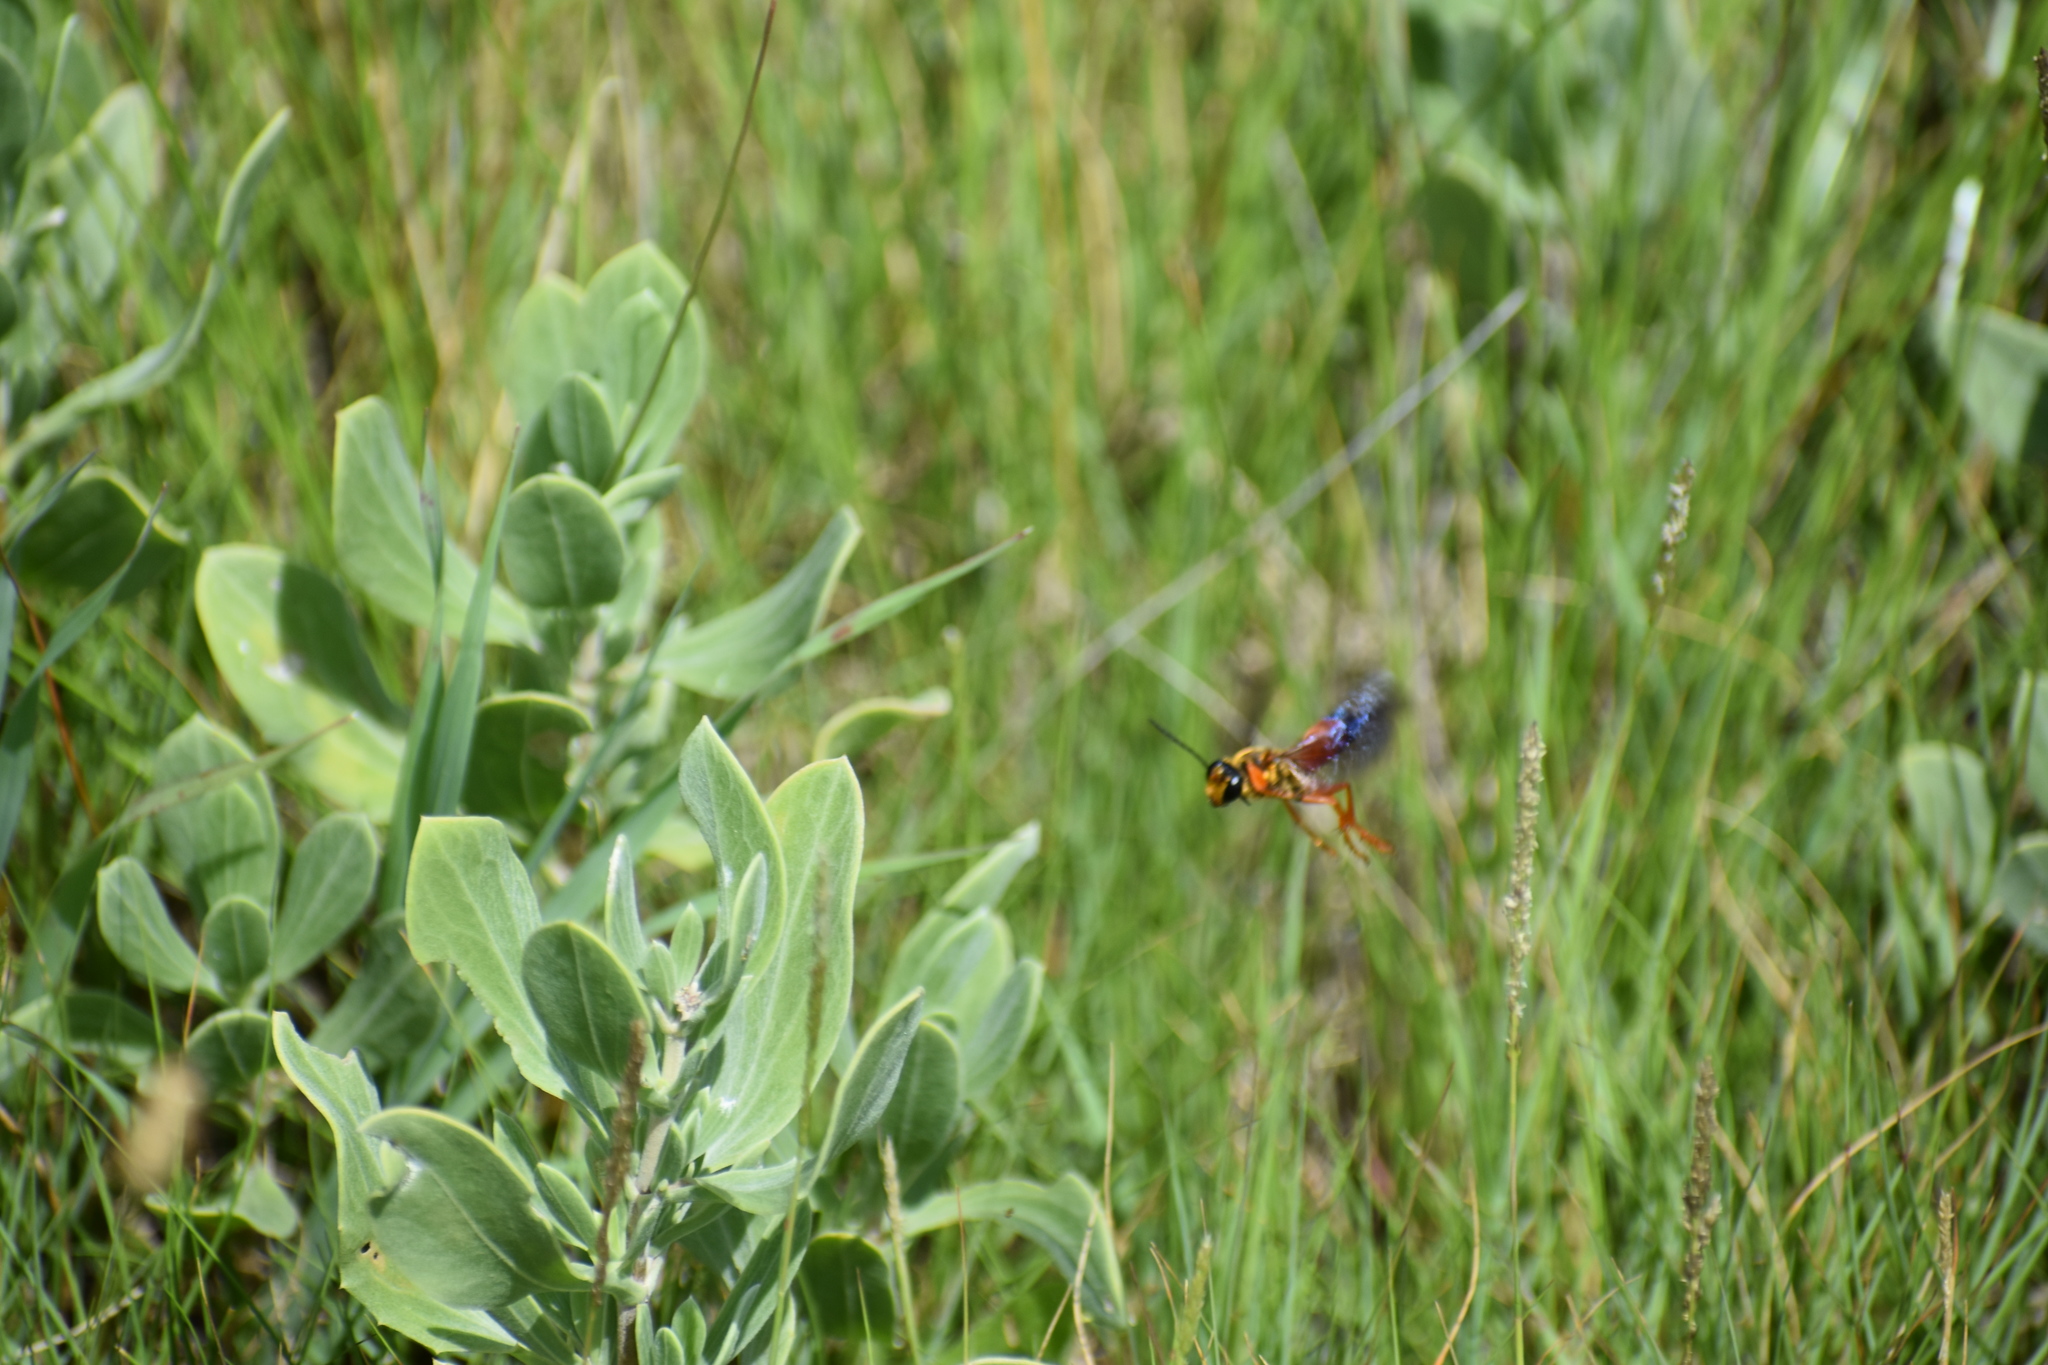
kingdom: Animalia
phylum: Arthropoda
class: Insecta
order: Hymenoptera
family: Sphecidae
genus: Sphex
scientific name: Sphex ichneumoneus
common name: Great golden digger wasp
